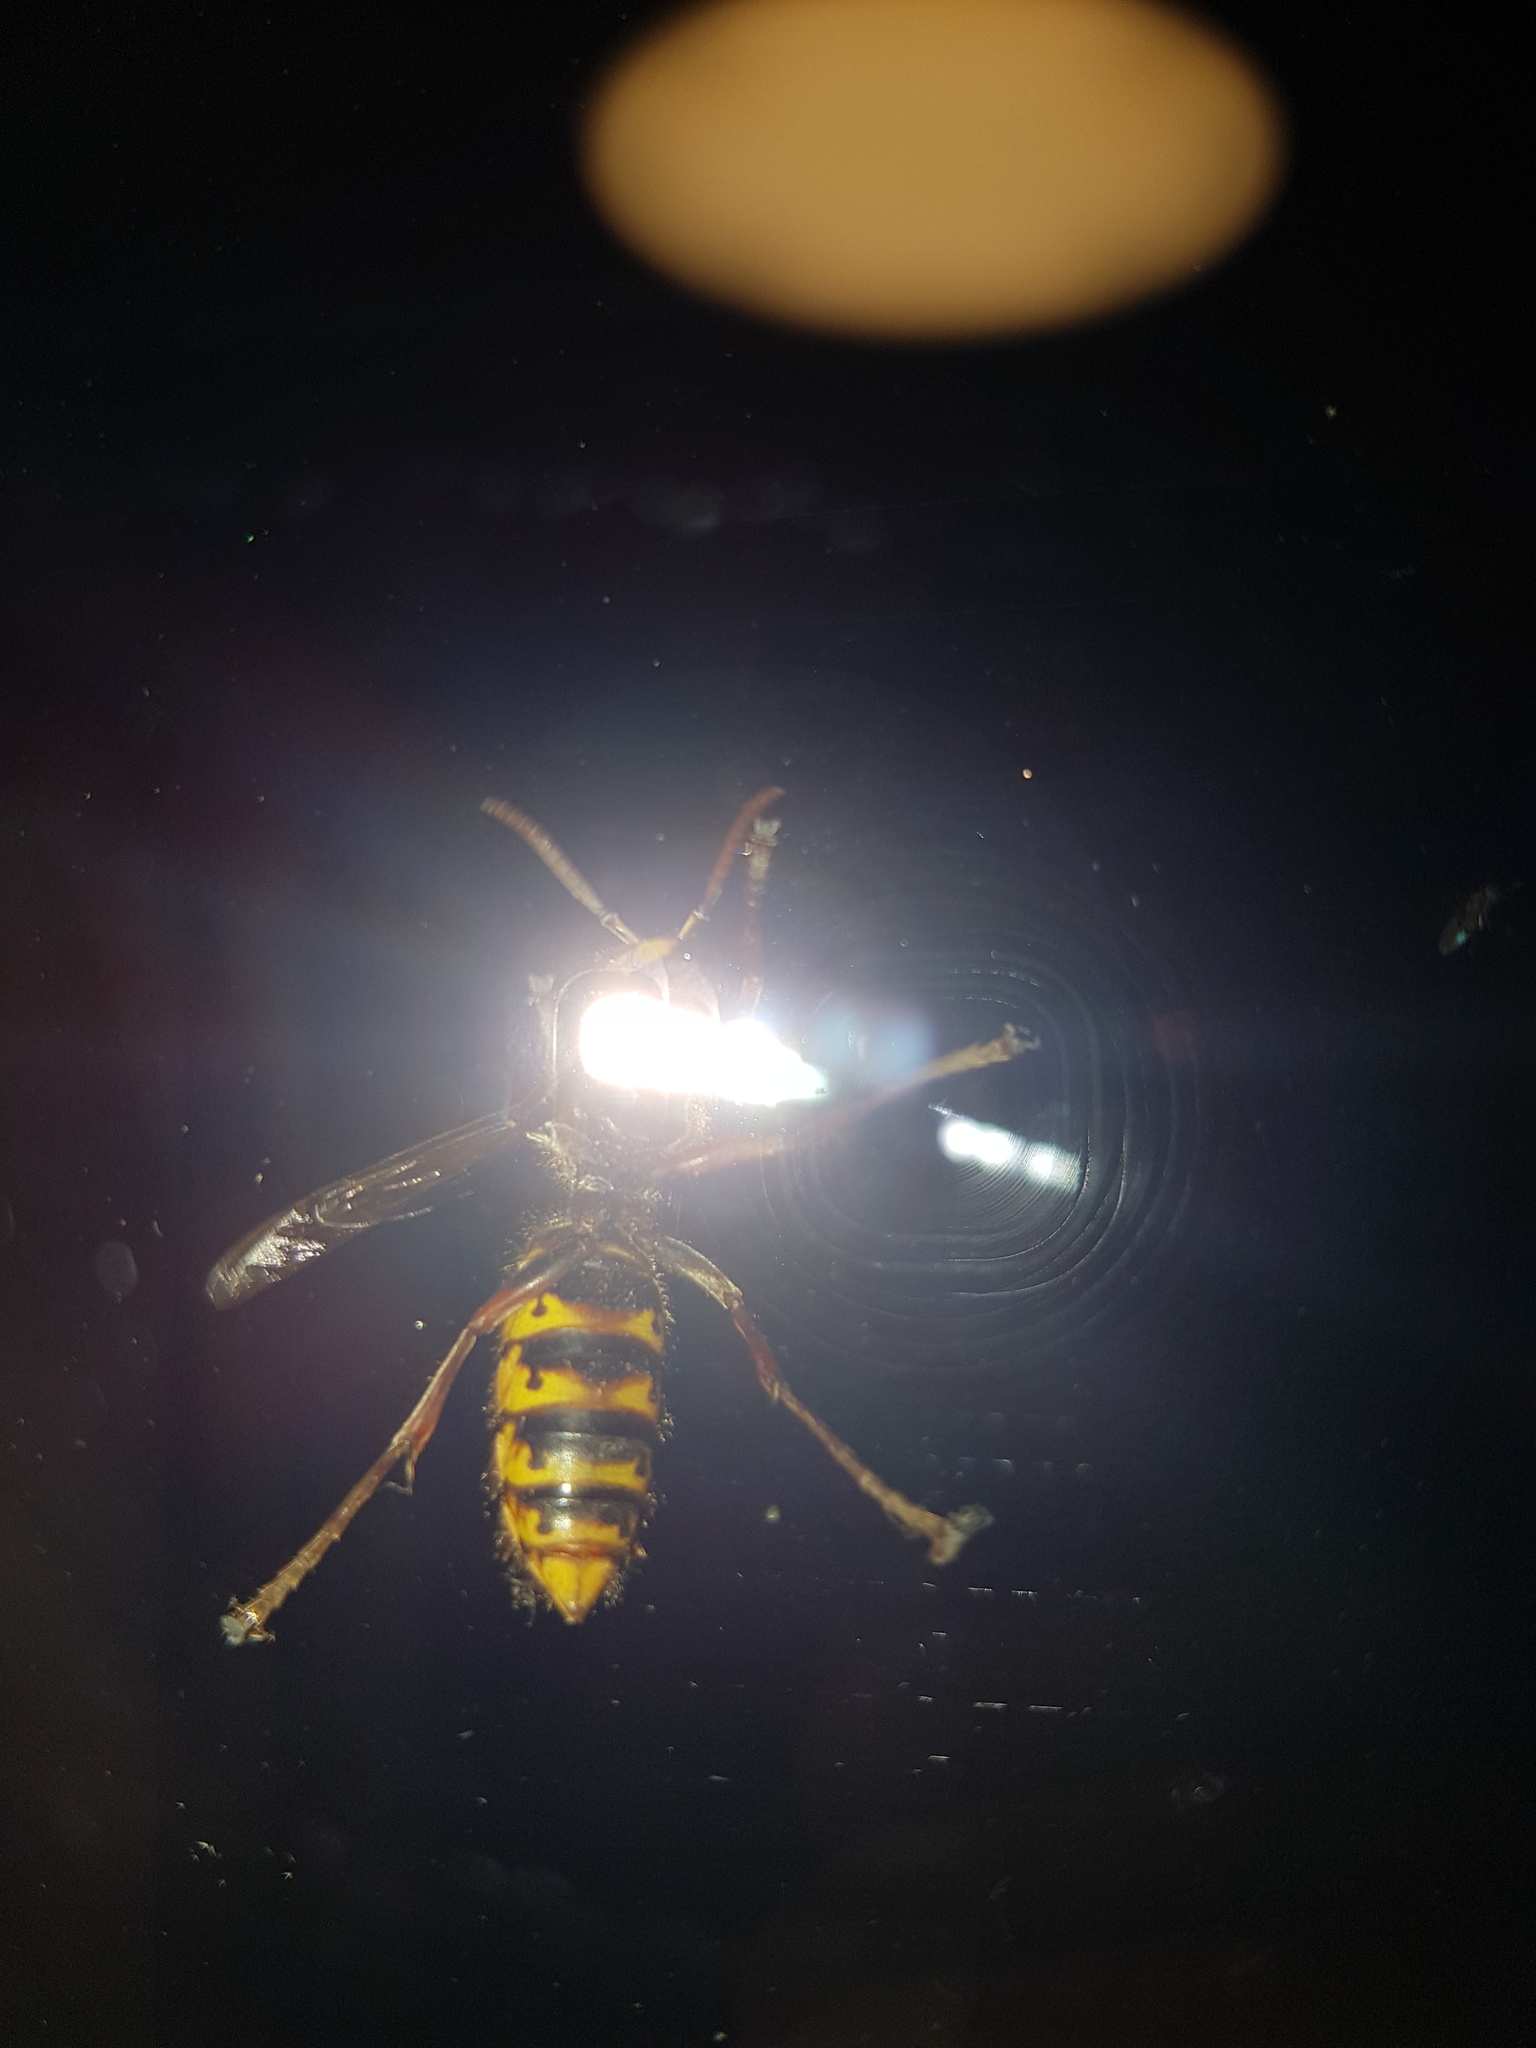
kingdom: Animalia
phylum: Arthropoda
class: Insecta
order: Hymenoptera
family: Vespidae
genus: Vespa
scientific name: Vespa crabro
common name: Hornet
